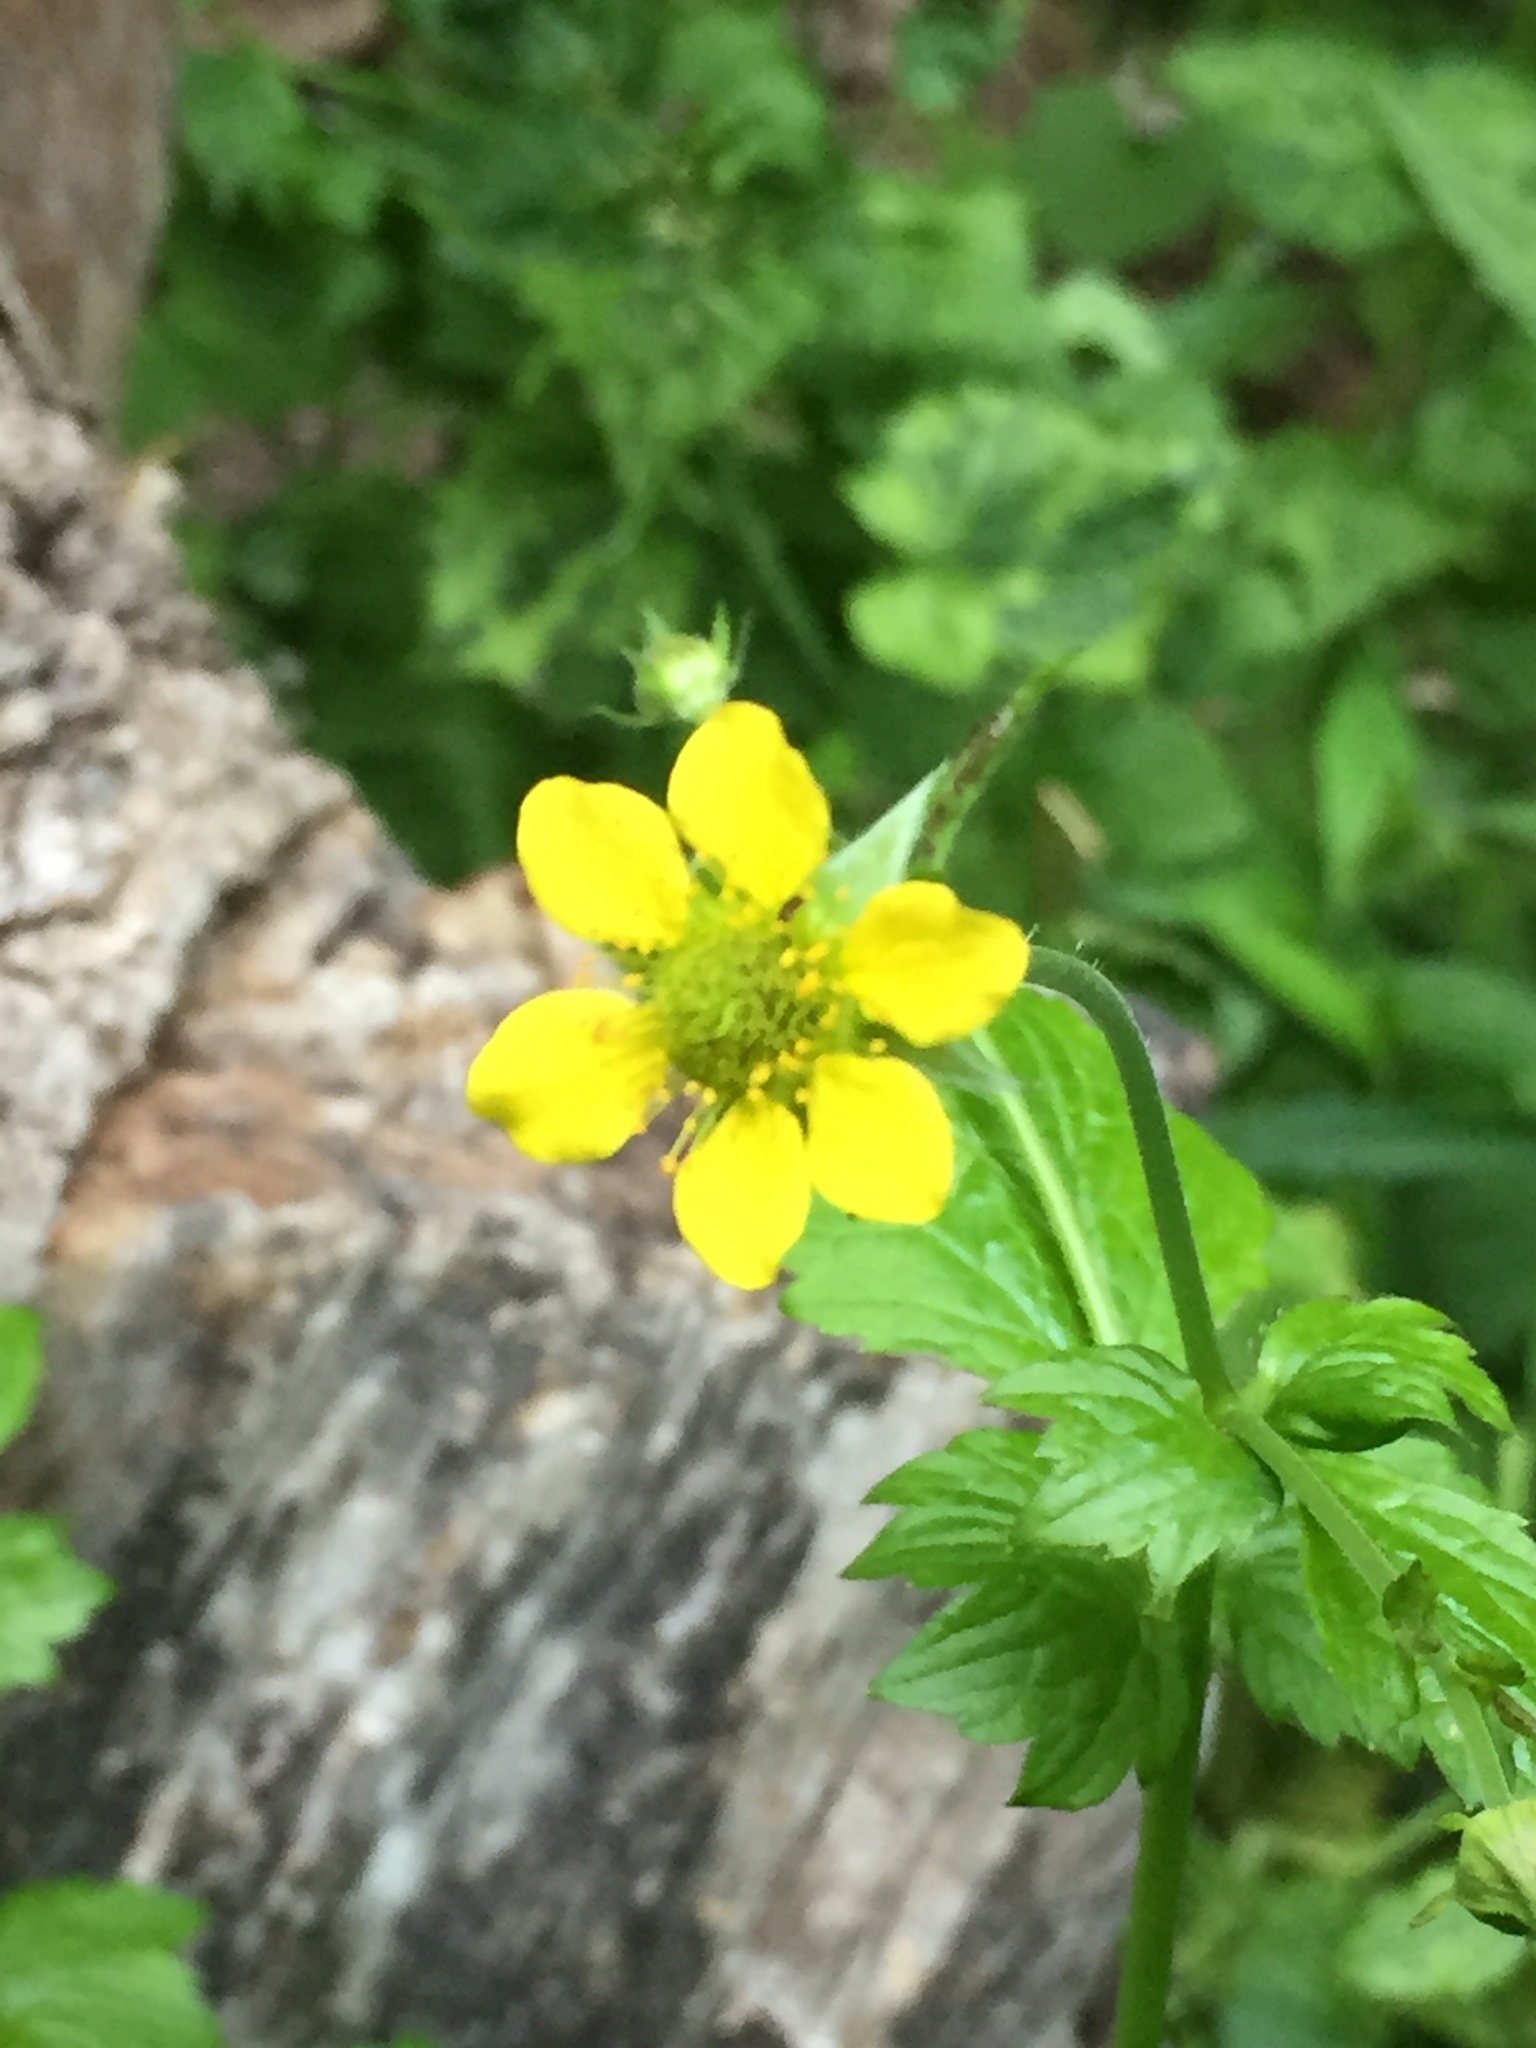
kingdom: Plantae
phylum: Tracheophyta
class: Magnoliopsida
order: Rosales
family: Rosaceae
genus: Geum
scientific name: Geum urbanum
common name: Wood avens
